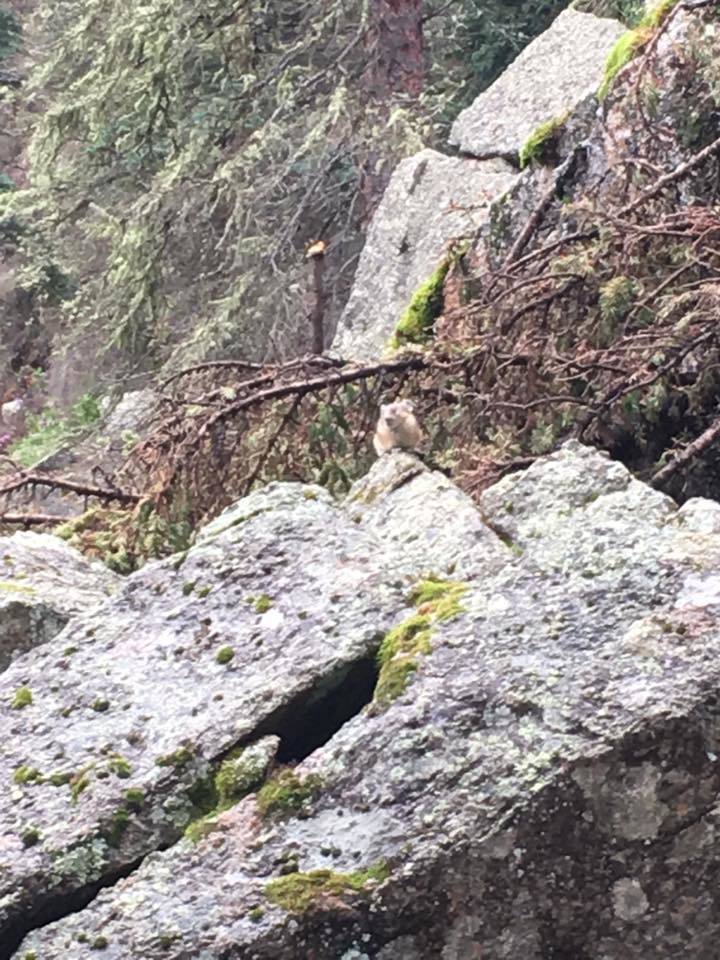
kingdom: Animalia
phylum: Chordata
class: Mammalia
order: Lagomorpha
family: Ochotonidae
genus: Ochotona
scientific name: Ochotona princeps
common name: American pika
